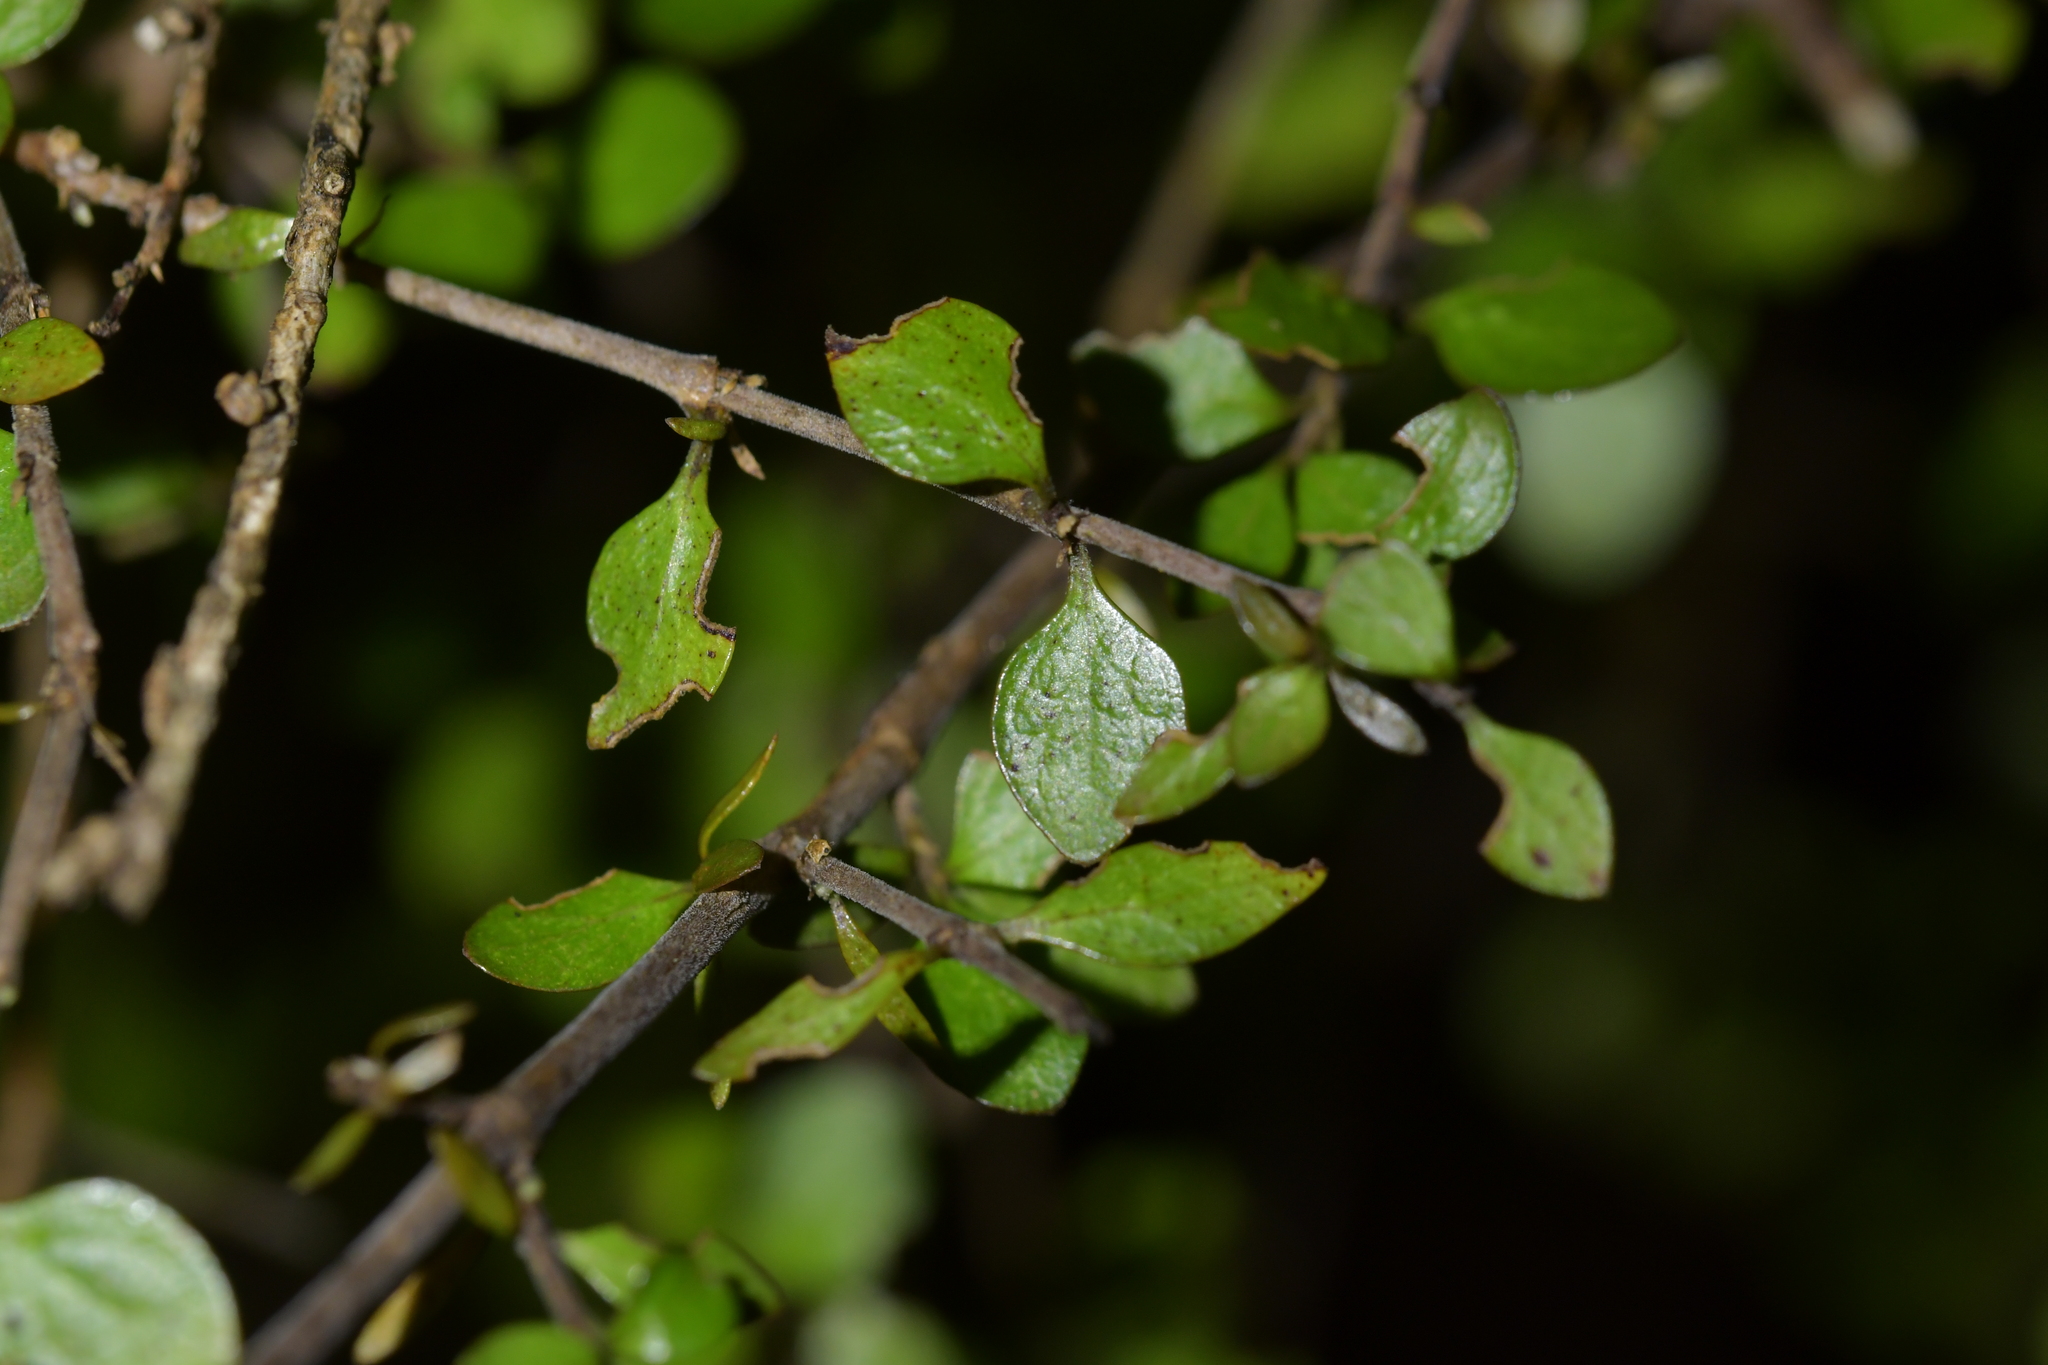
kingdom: Plantae
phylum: Tracheophyta
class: Magnoliopsida
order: Gentianales
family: Rubiaceae
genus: Coprosma
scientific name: Coprosma virescens
